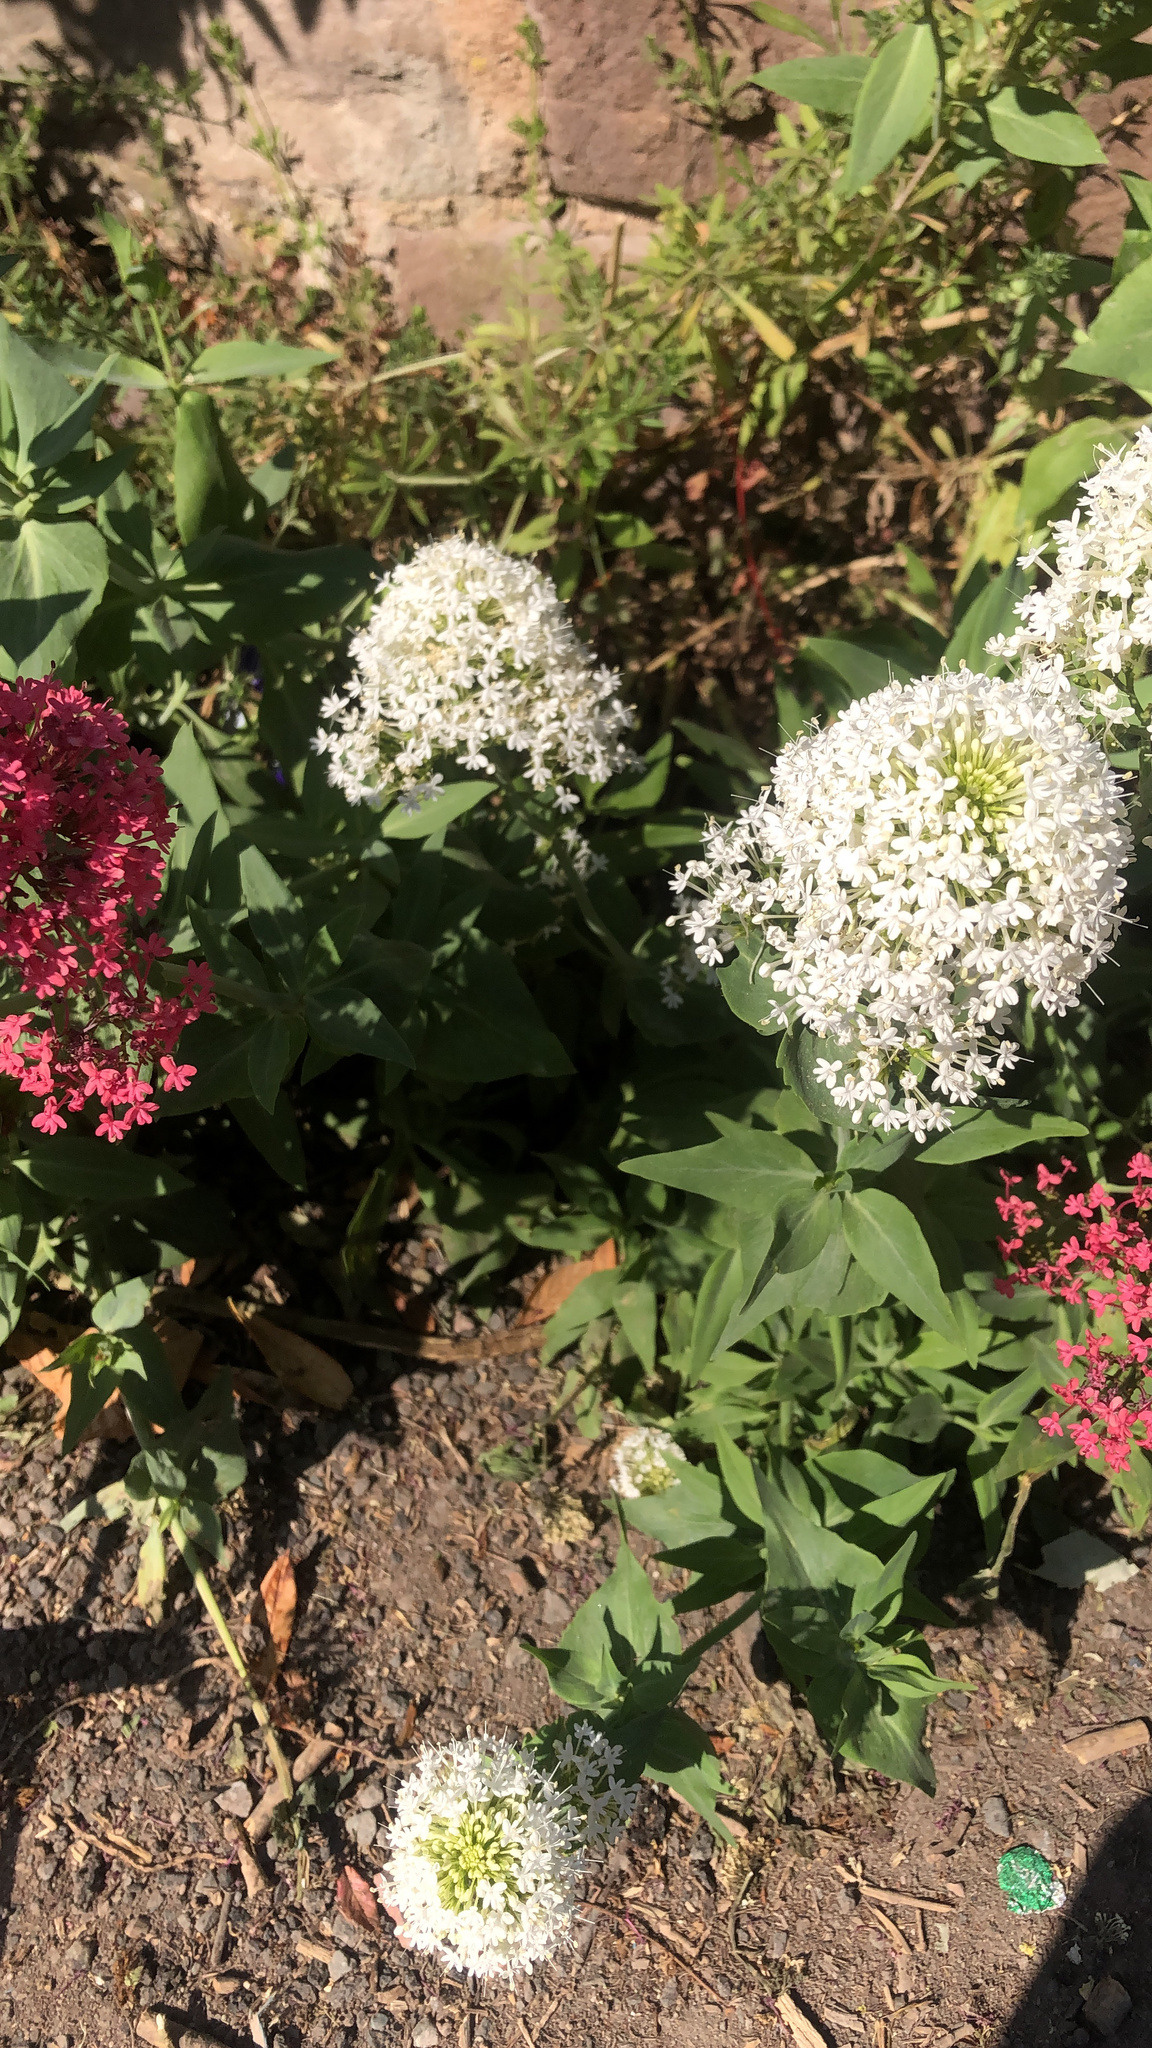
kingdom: Plantae
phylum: Tracheophyta
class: Magnoliopsida
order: Dipsacales
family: Caprifoliaceae
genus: Centranthus
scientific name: Centranthus ruber
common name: Red valerian
